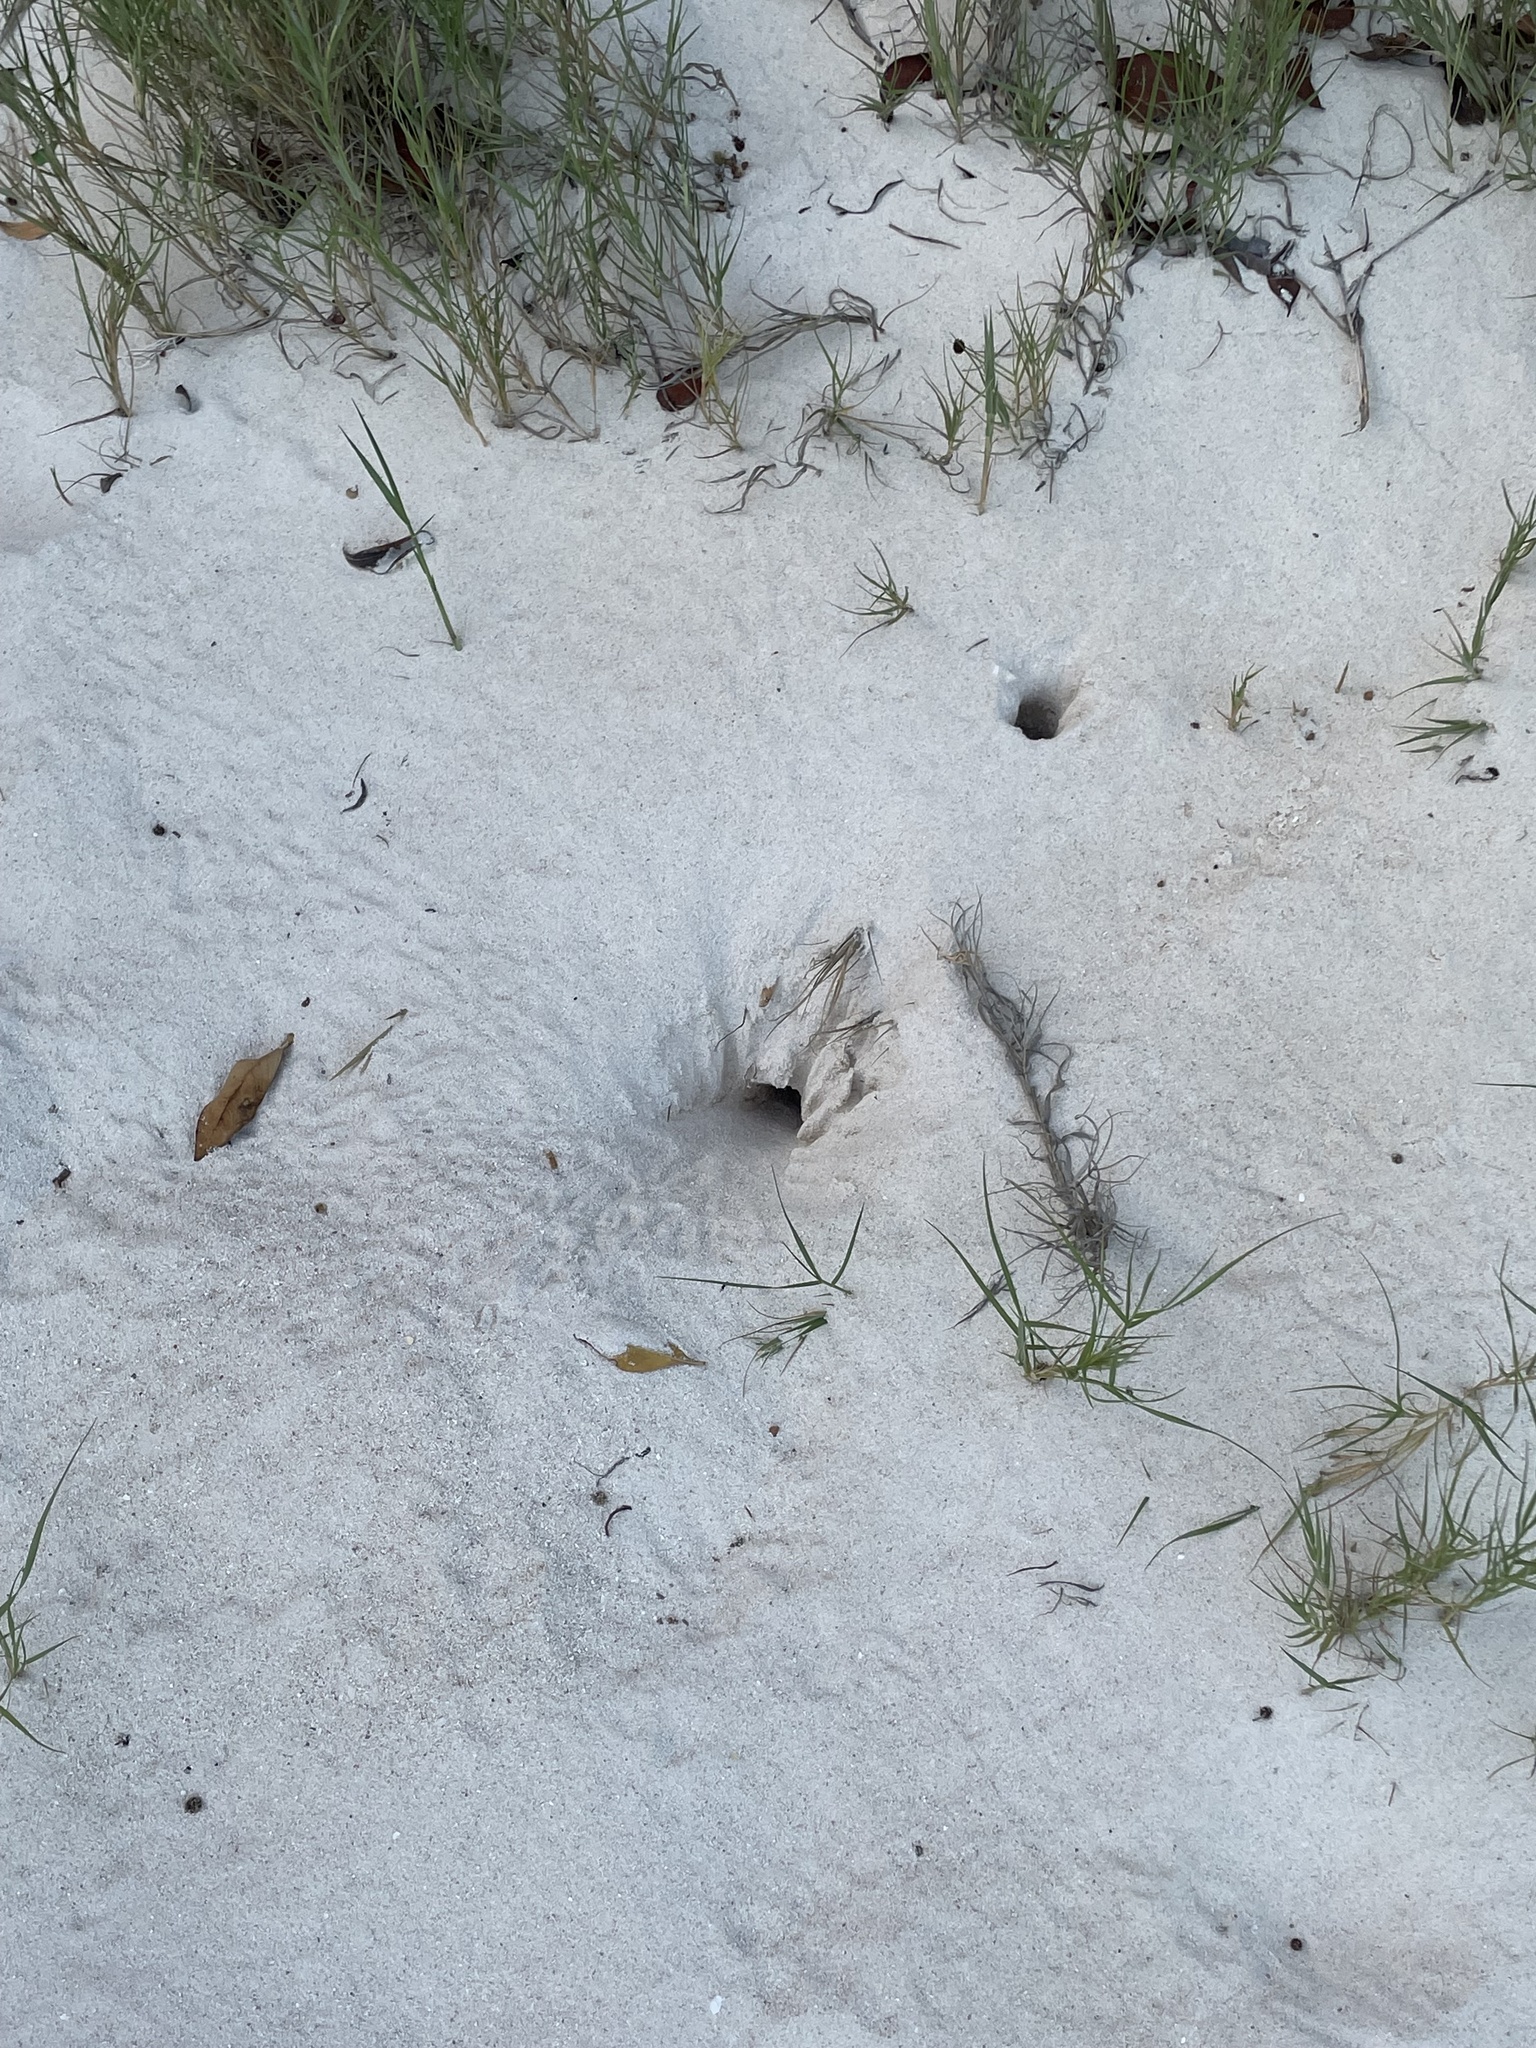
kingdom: Animalia
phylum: Arthropoda
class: Malacostraca
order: Decapoda
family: Ocypodidae
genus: Ocypode
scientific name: Ocypode quadrata
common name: Ghost crab
